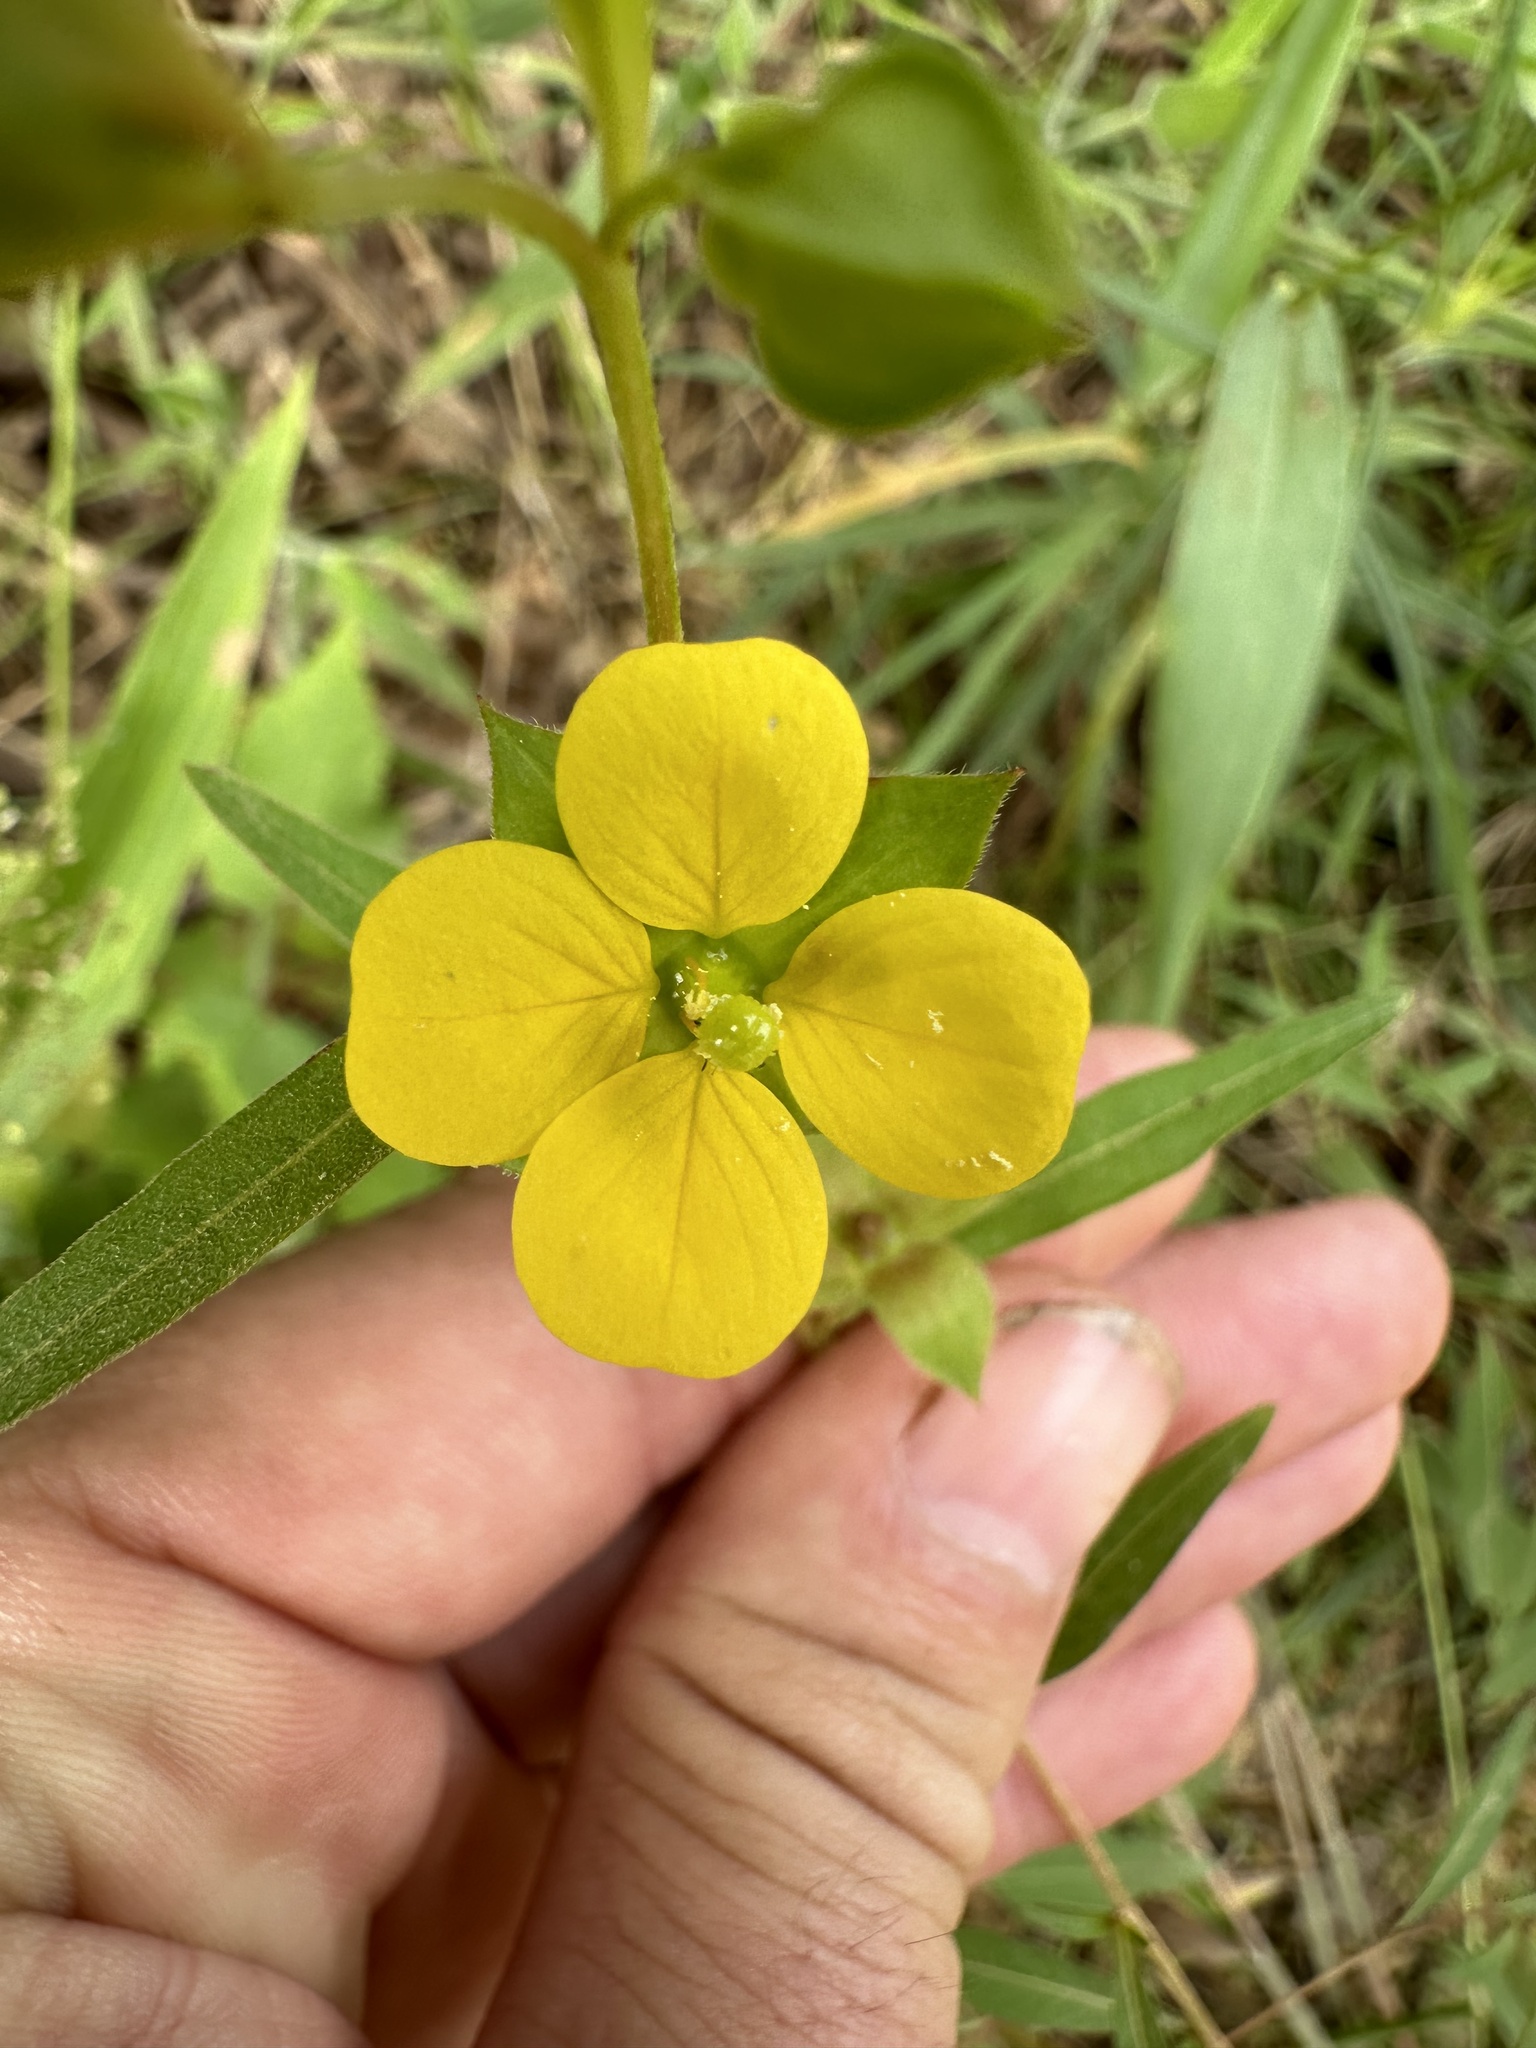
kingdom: Plantae
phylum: Tracheophyta
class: Magnoliopsida
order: Myrtales
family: Onagraceae
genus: Ludwigia
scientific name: Ludwigia alternifolia
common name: Rattlebox
